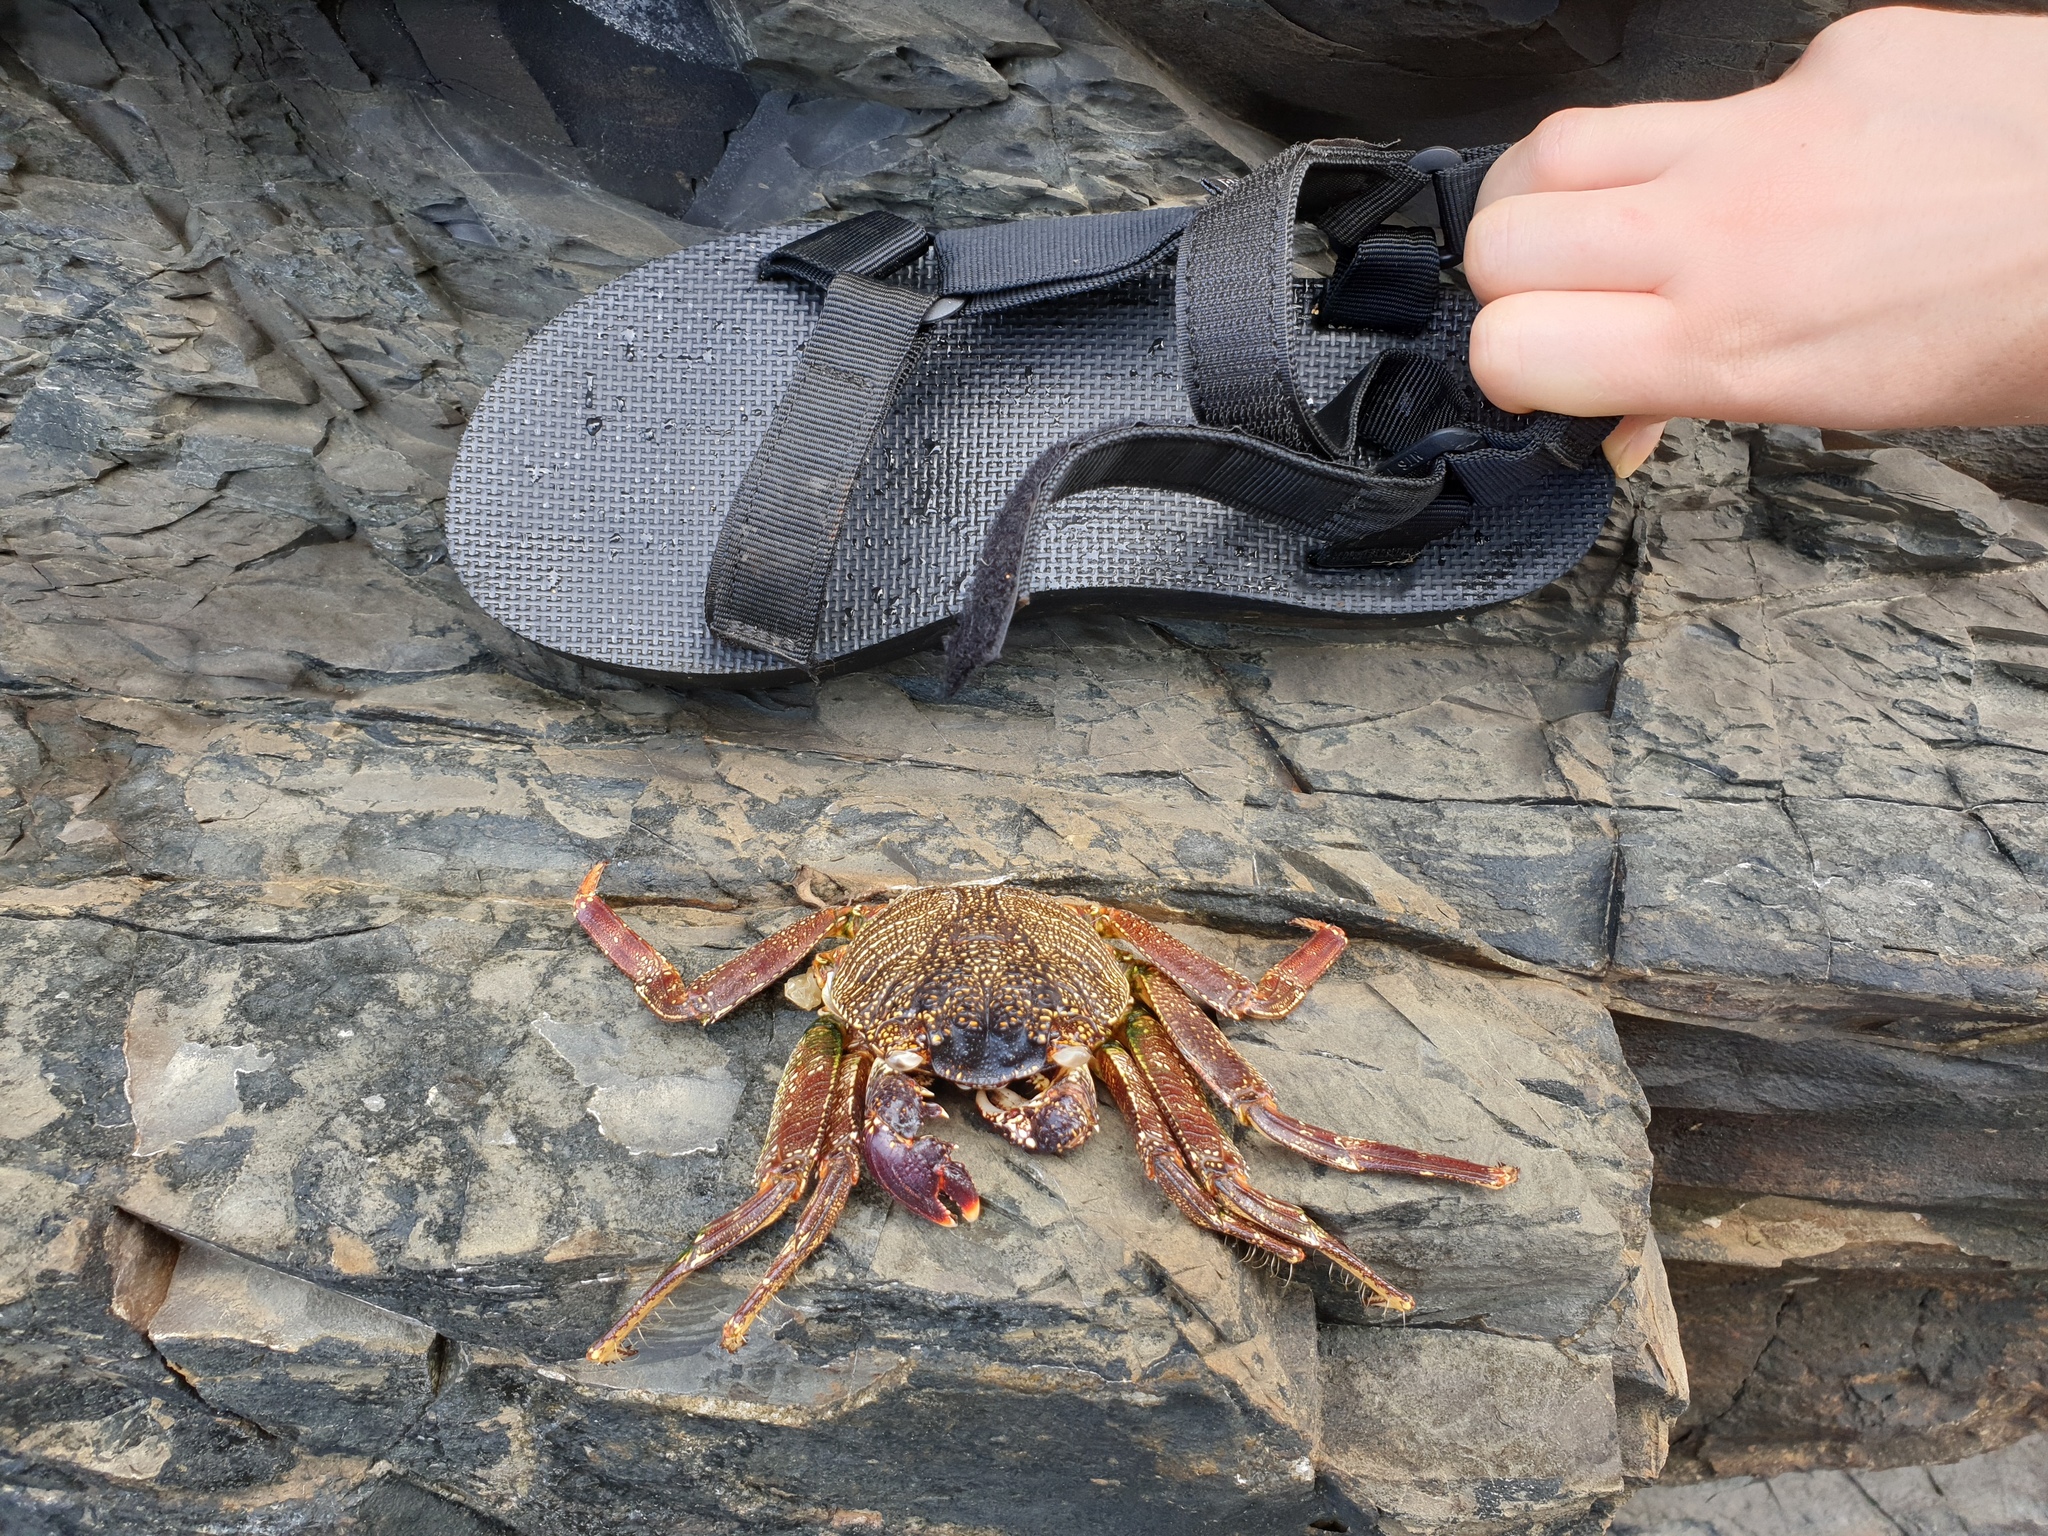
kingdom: Animalia
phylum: Arthropoda
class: Malacostraca
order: Decapoda
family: Grapsidae
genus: Grapsus
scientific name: Grapsus tenuicrustatus
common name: Natal lightfoot crab
